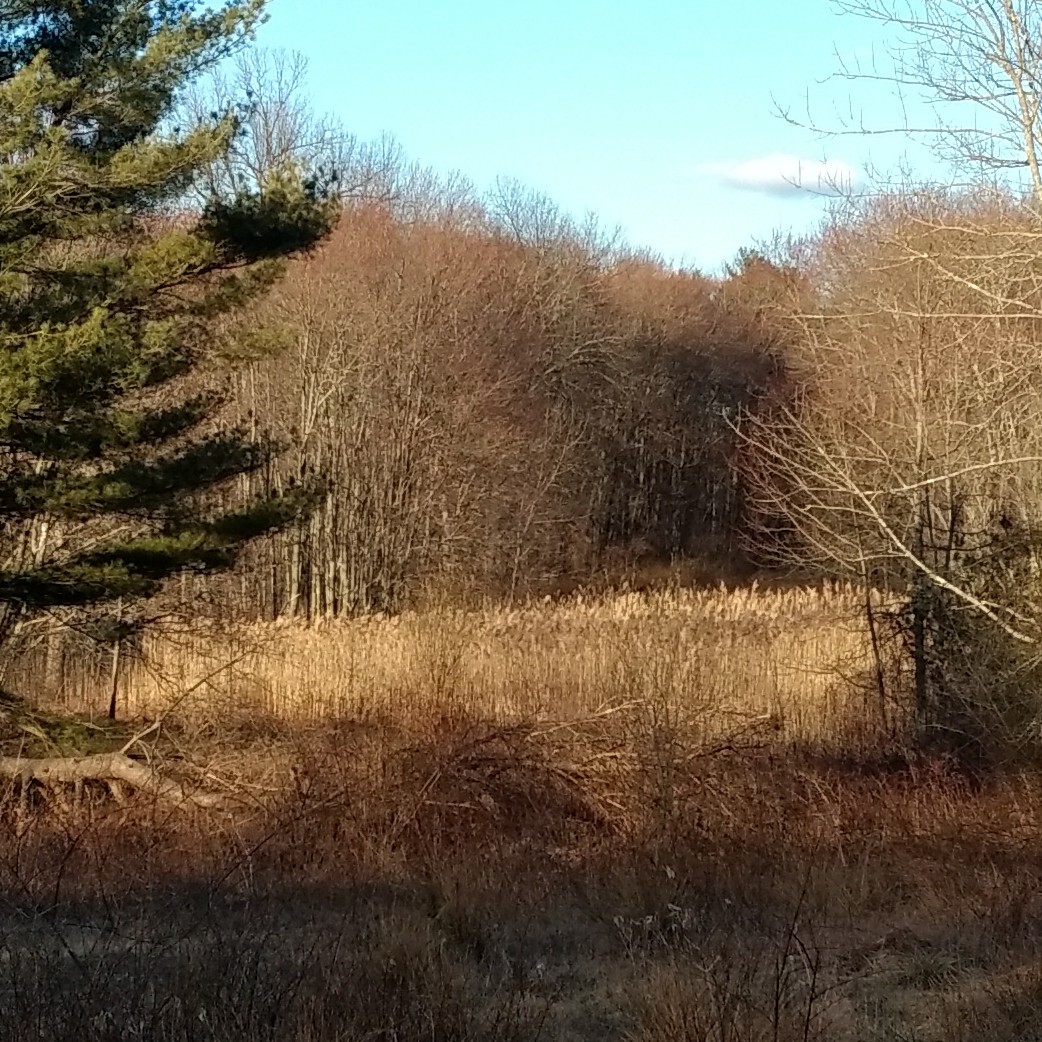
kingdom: Plantae
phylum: Tracheophyta
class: Liliopsida
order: Poales
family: Poaceae
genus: Phragmites
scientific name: Phragmites australis
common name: Common reed
